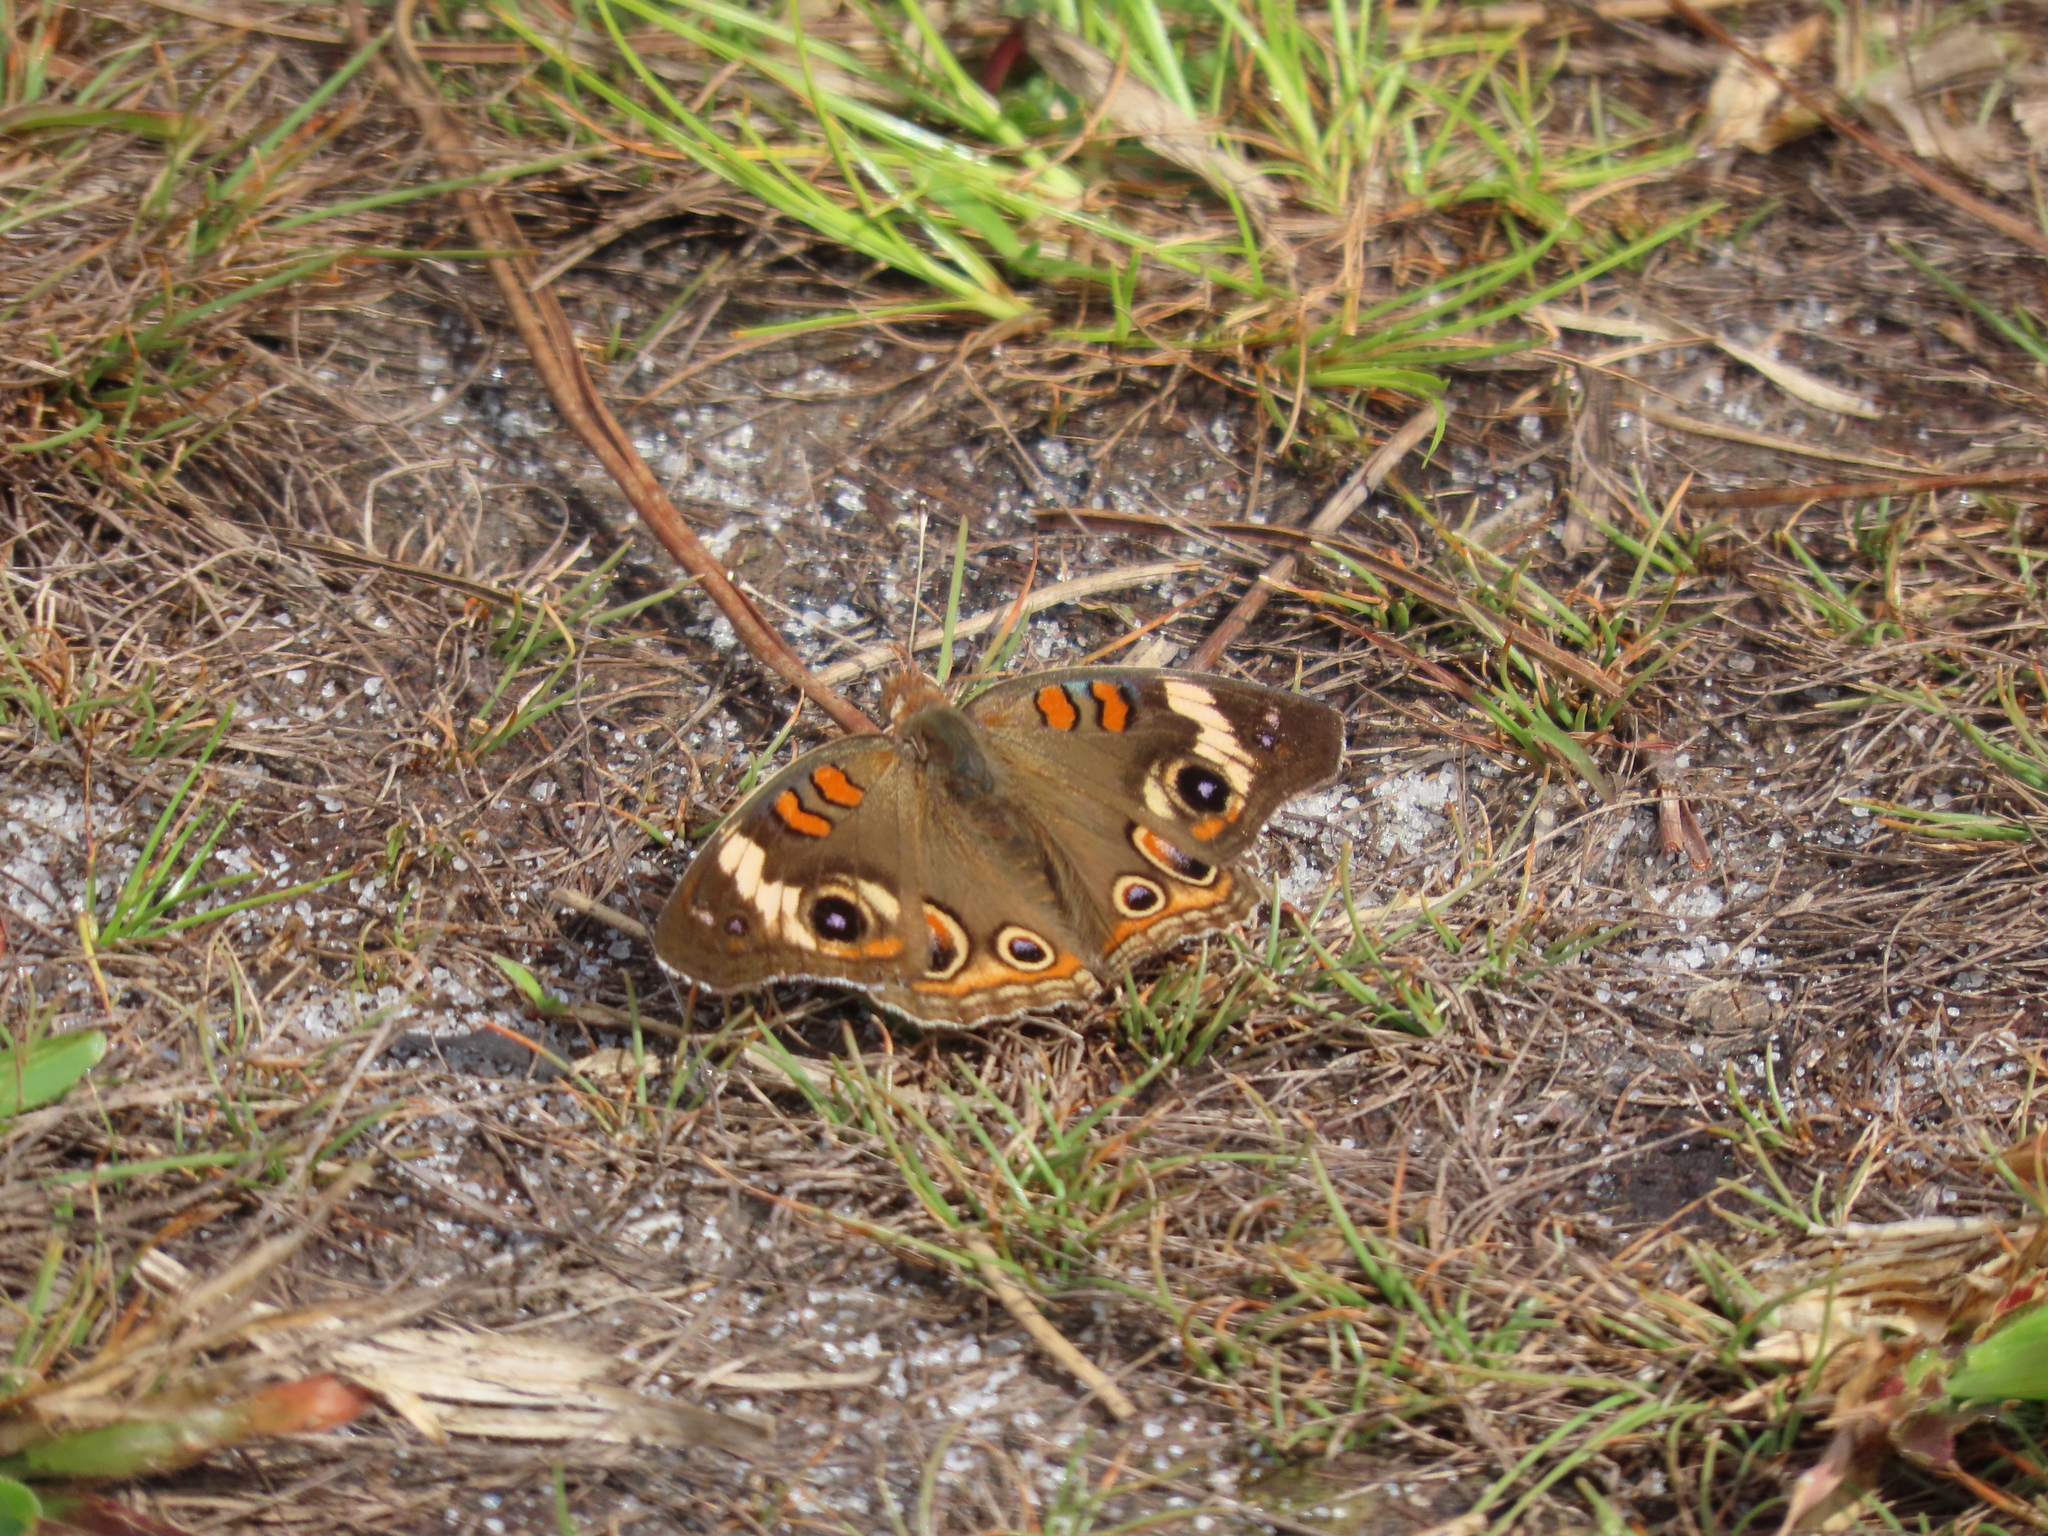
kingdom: Animalia
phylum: Arthropoda
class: Insecta
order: Lepidoptera
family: Nymphalidae
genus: Junonia
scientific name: Junonia coenia
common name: Common buckeye
